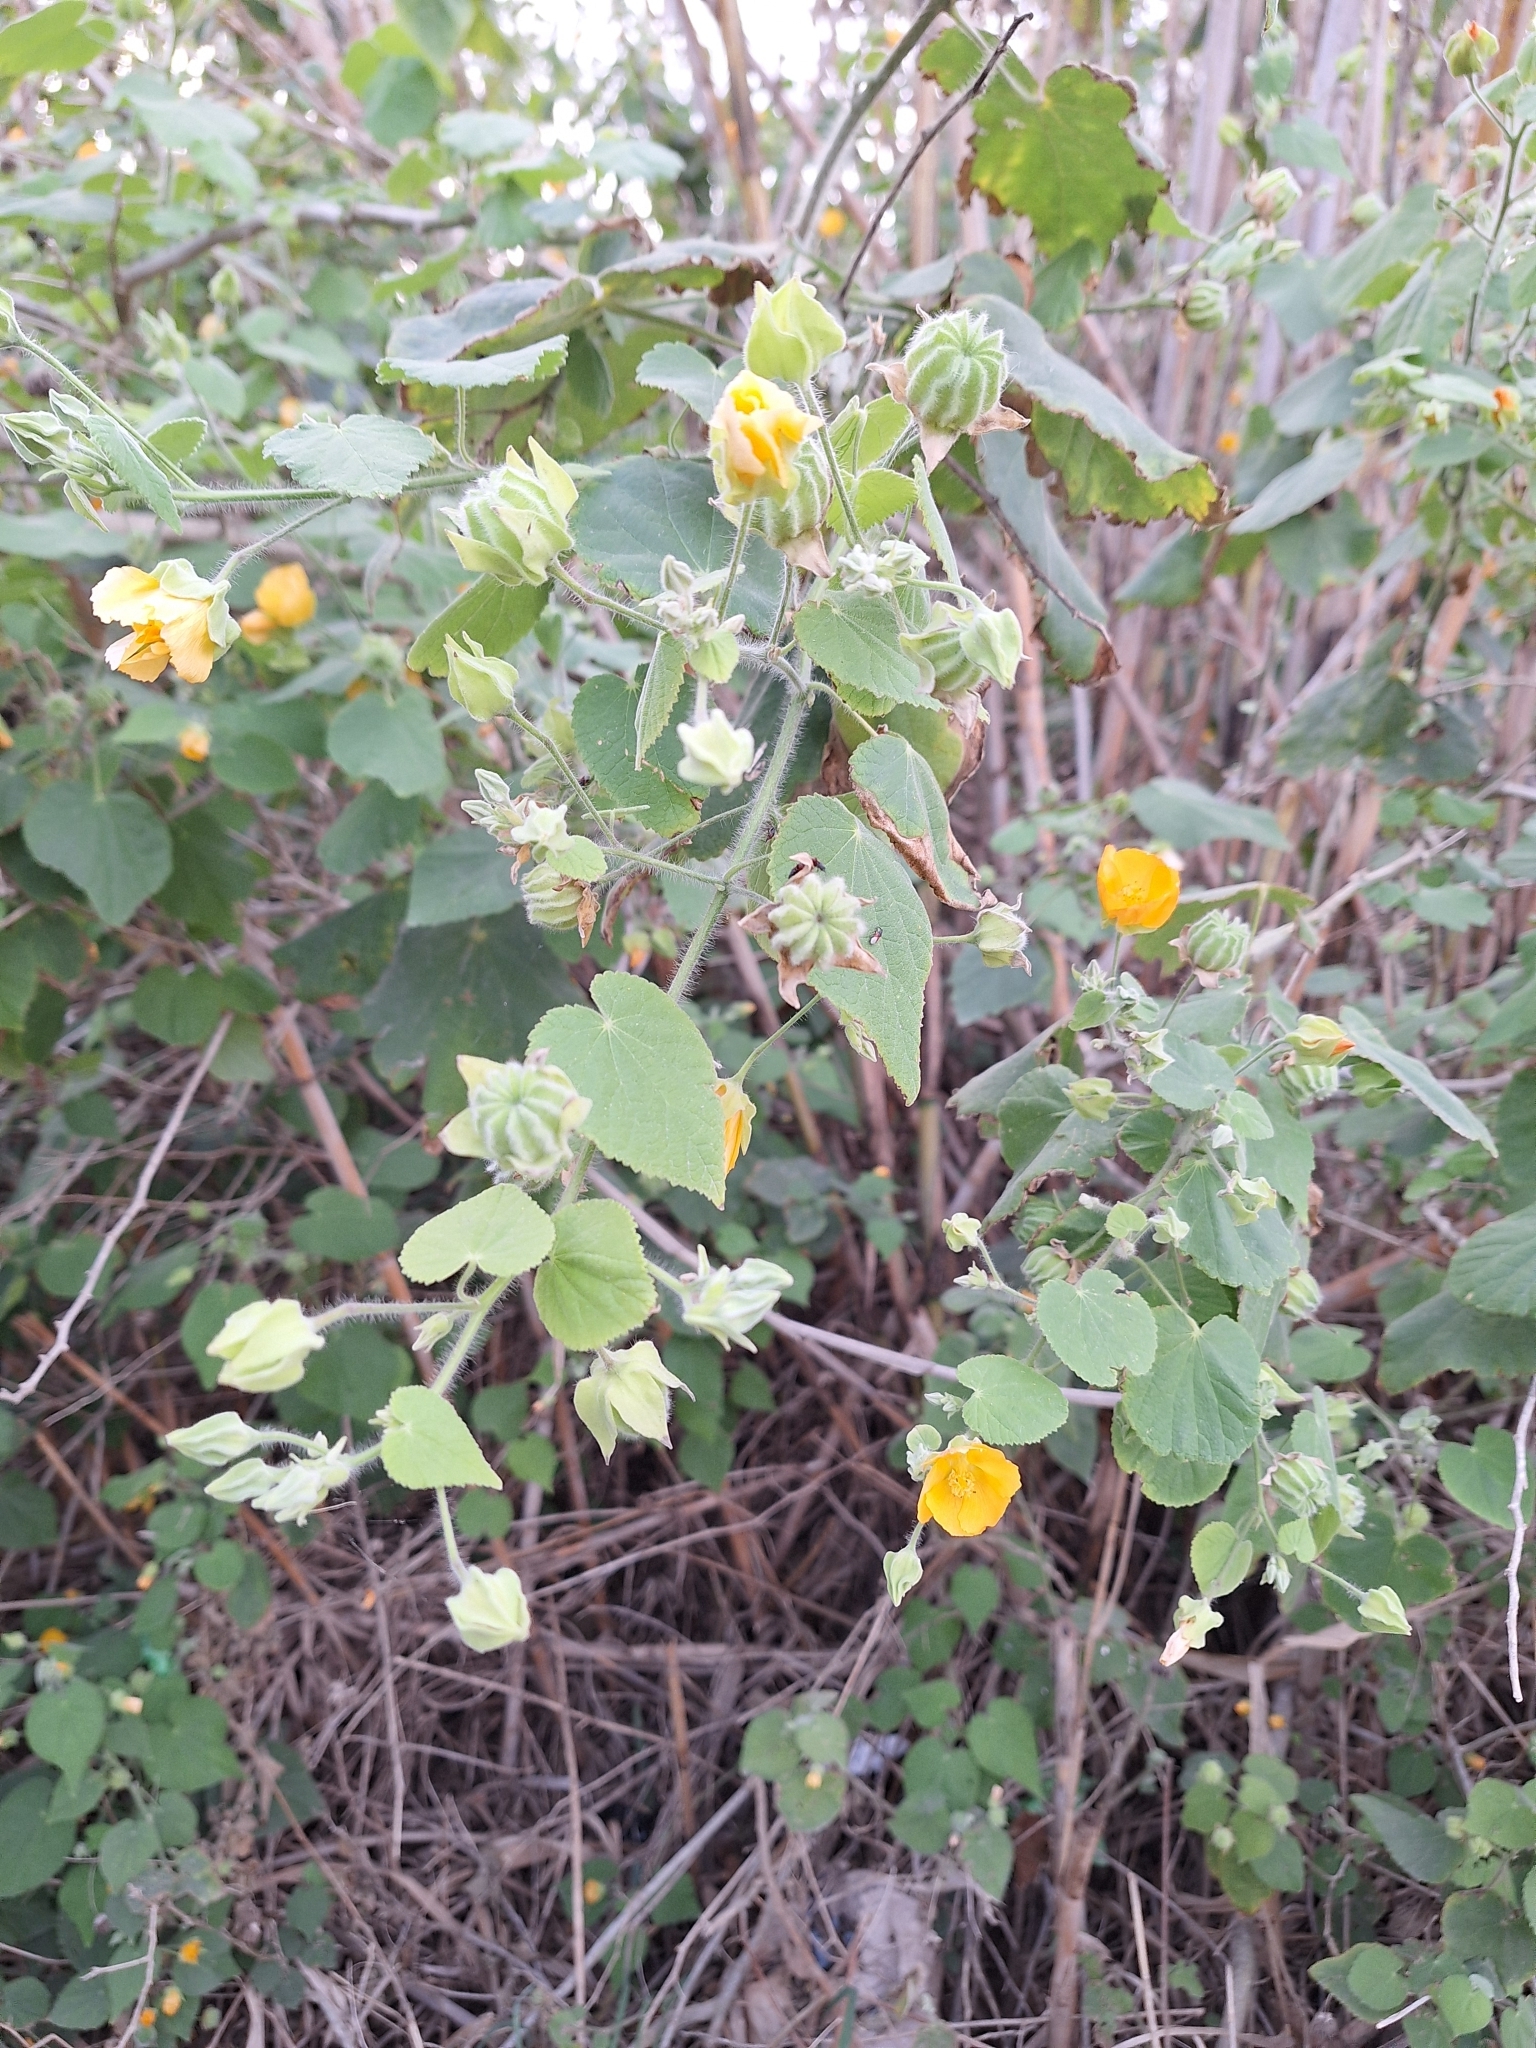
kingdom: Plantae
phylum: Tracheophyta
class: Magnoliopsida
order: Malvales
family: Malvaceae
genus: Abutilon
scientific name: Abutilon theophrasti
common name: Velvetleaf
